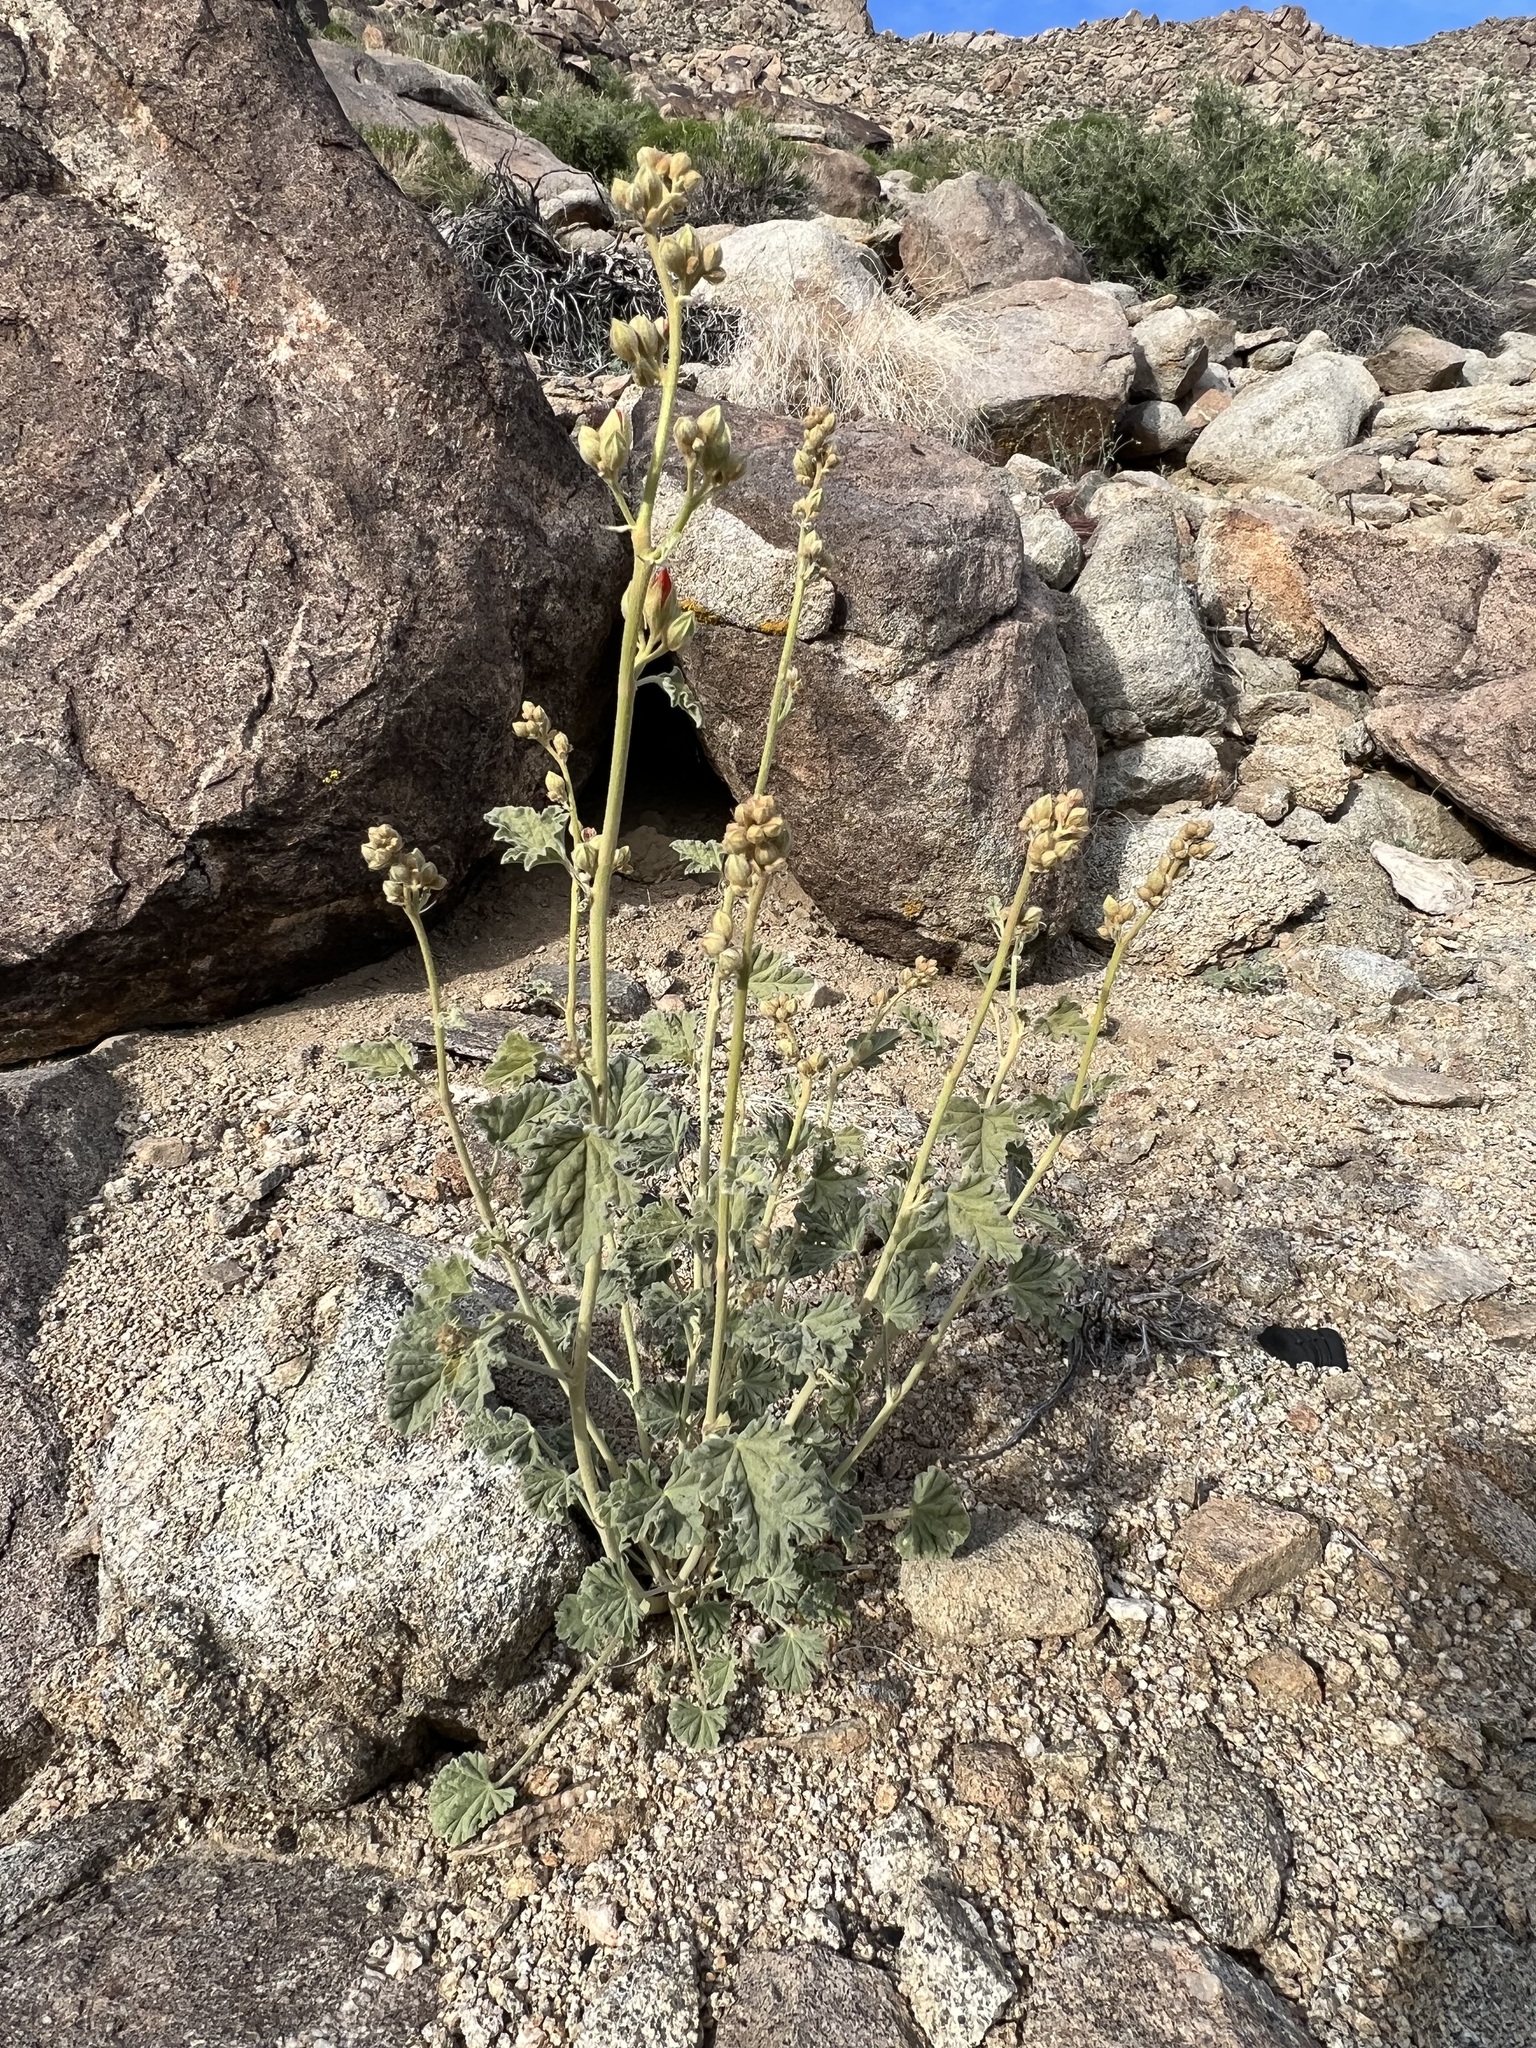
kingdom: Plantae
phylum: Tracheophyta
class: Magnoliopsida
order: Malvales
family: Malvaceae
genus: Sphaeralcea
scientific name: Sphaeralcea ambigua
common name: Apricot globe-mallow
